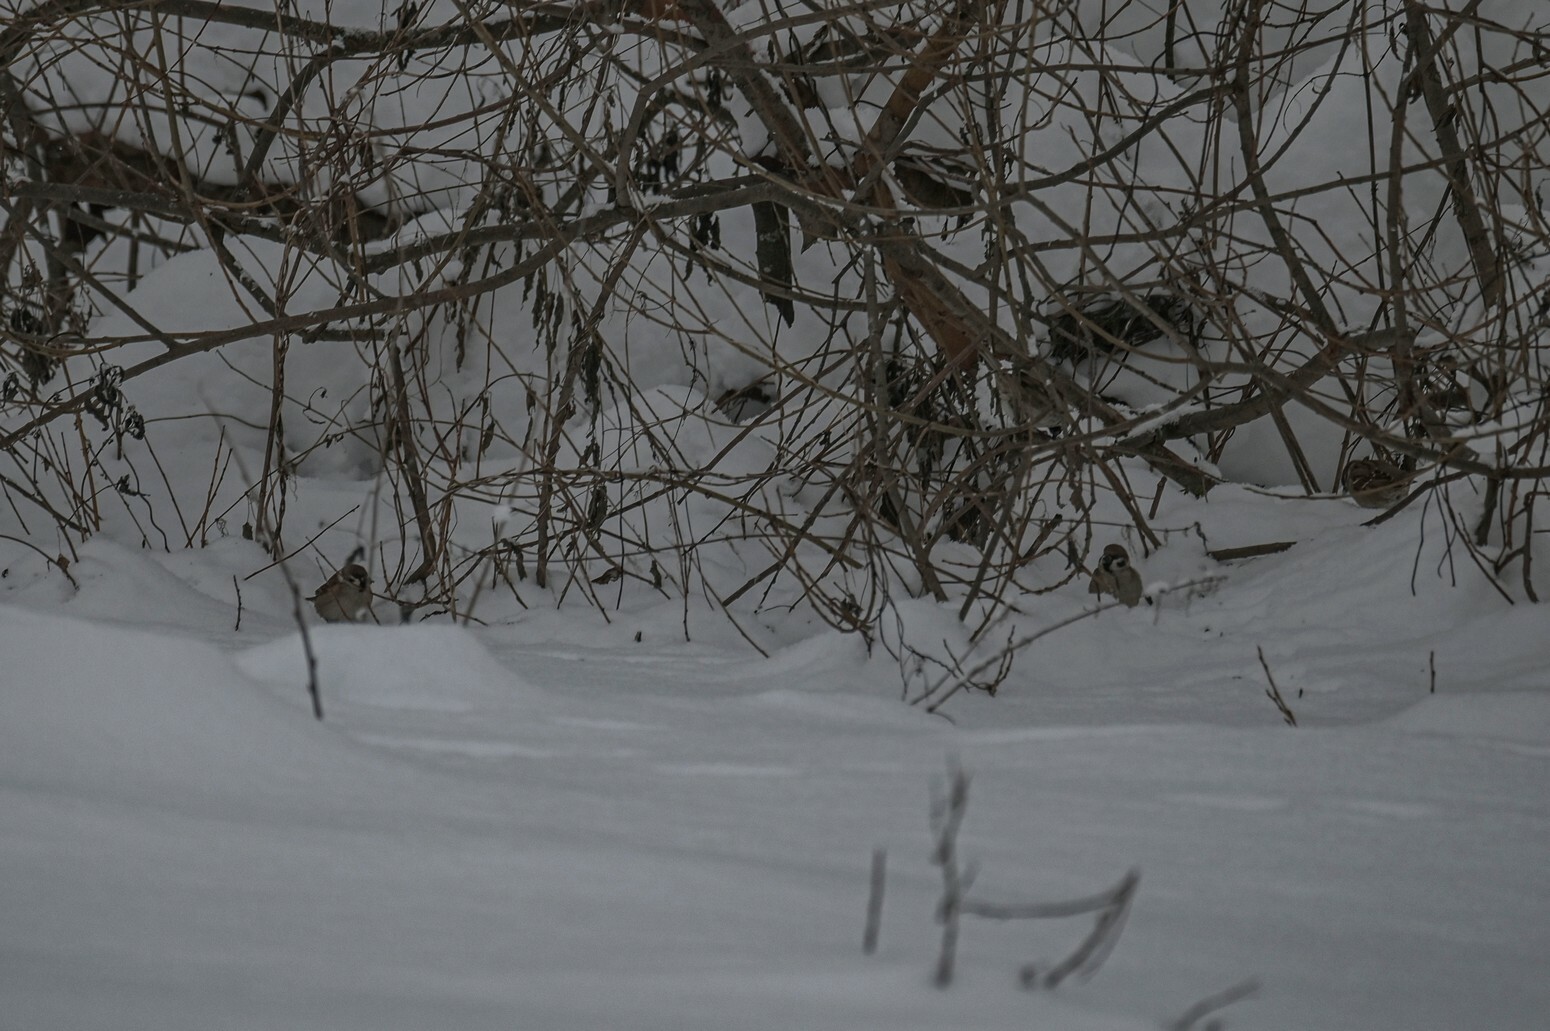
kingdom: Animalia
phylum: Chordata
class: Aves
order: Passeriformes
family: Passeridae
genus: Passer
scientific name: Passer montanus
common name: Eurasian tree sparrow
